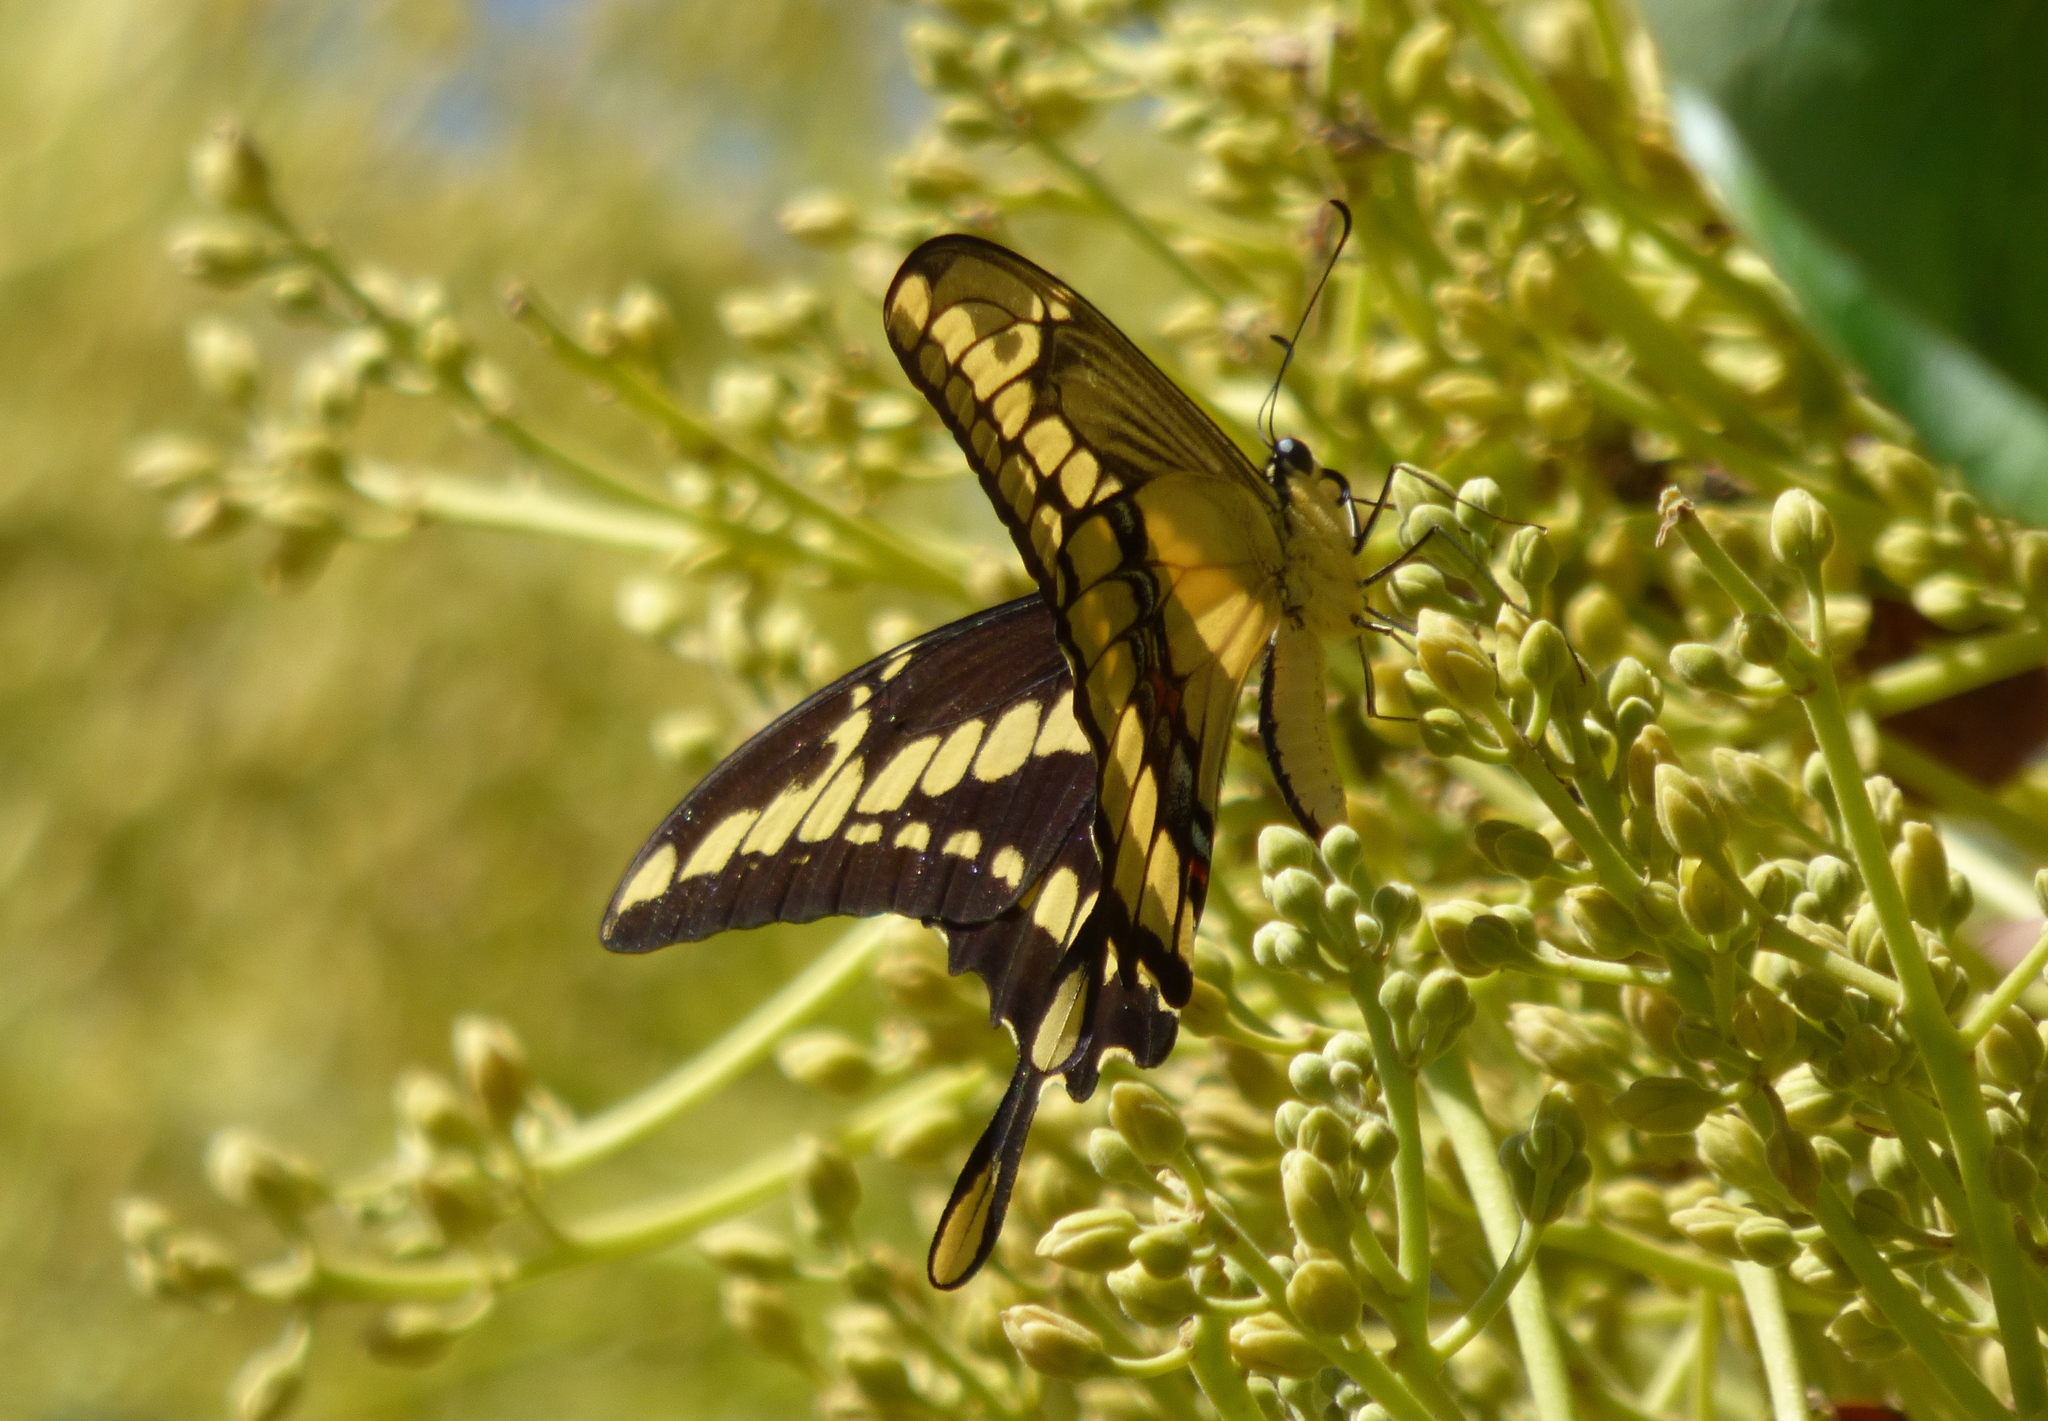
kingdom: Animalia
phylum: Arthropoda
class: Insecta
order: Lepidoptera
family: Papilionidae
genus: Papilio
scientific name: Papilio thoas
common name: King swallowtail
